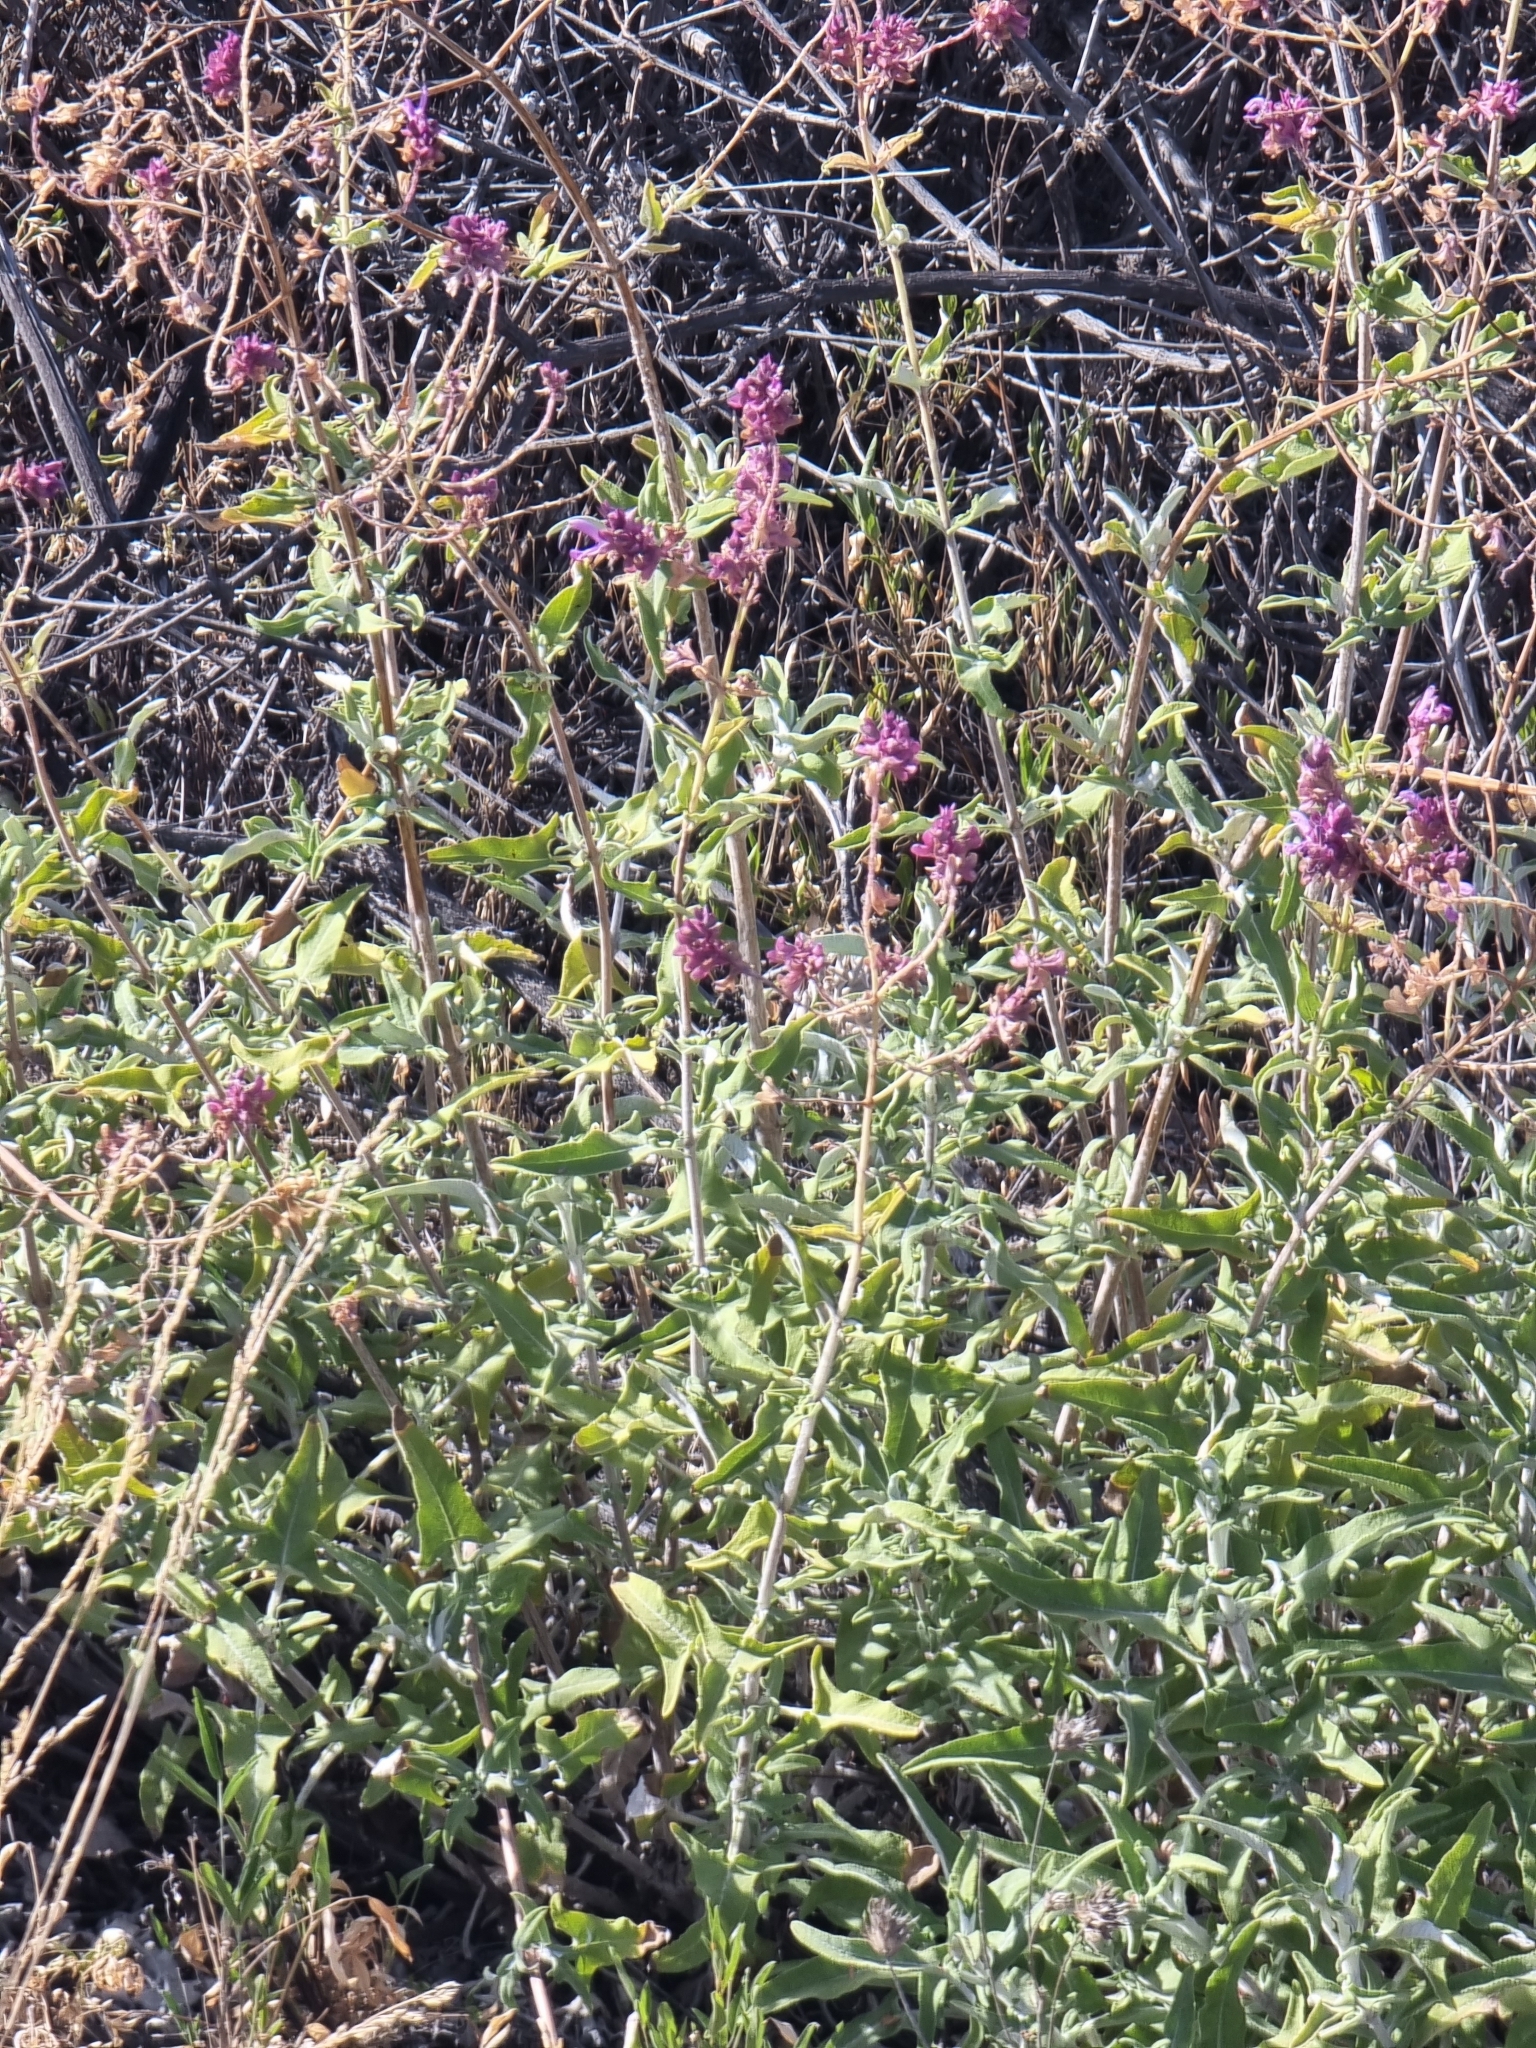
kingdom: Plantae
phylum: Tracheophyta
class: Magnoliopsida
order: Lamiales
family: Lamiaceae
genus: Salvia
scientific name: Salvia canariensis
